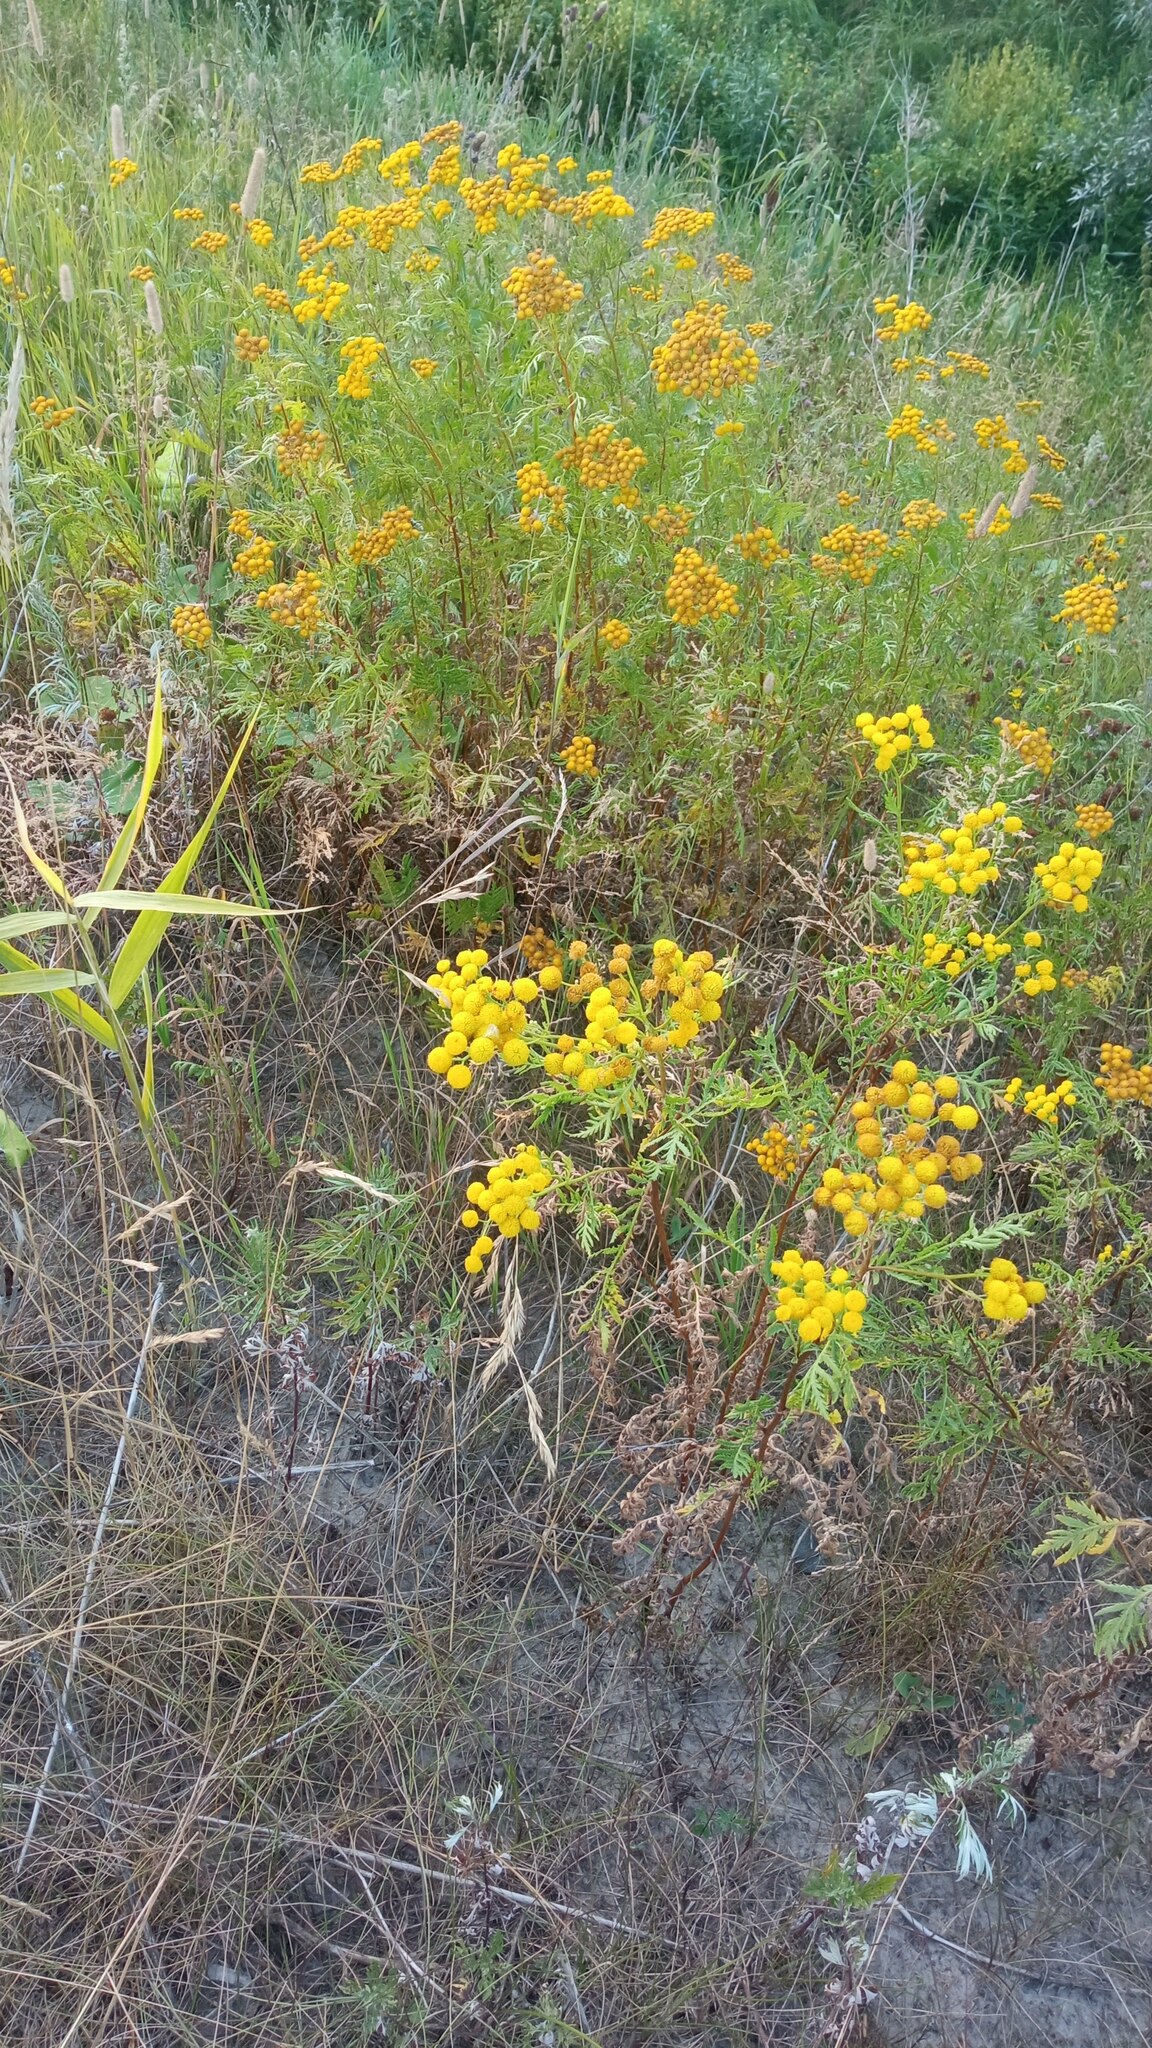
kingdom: Plantae
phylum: Tracheophyta
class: Magnoliopsida
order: Asterales
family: Asteraceae
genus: Tanacetum
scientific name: Tanacetum vulgare
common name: Common tansy
